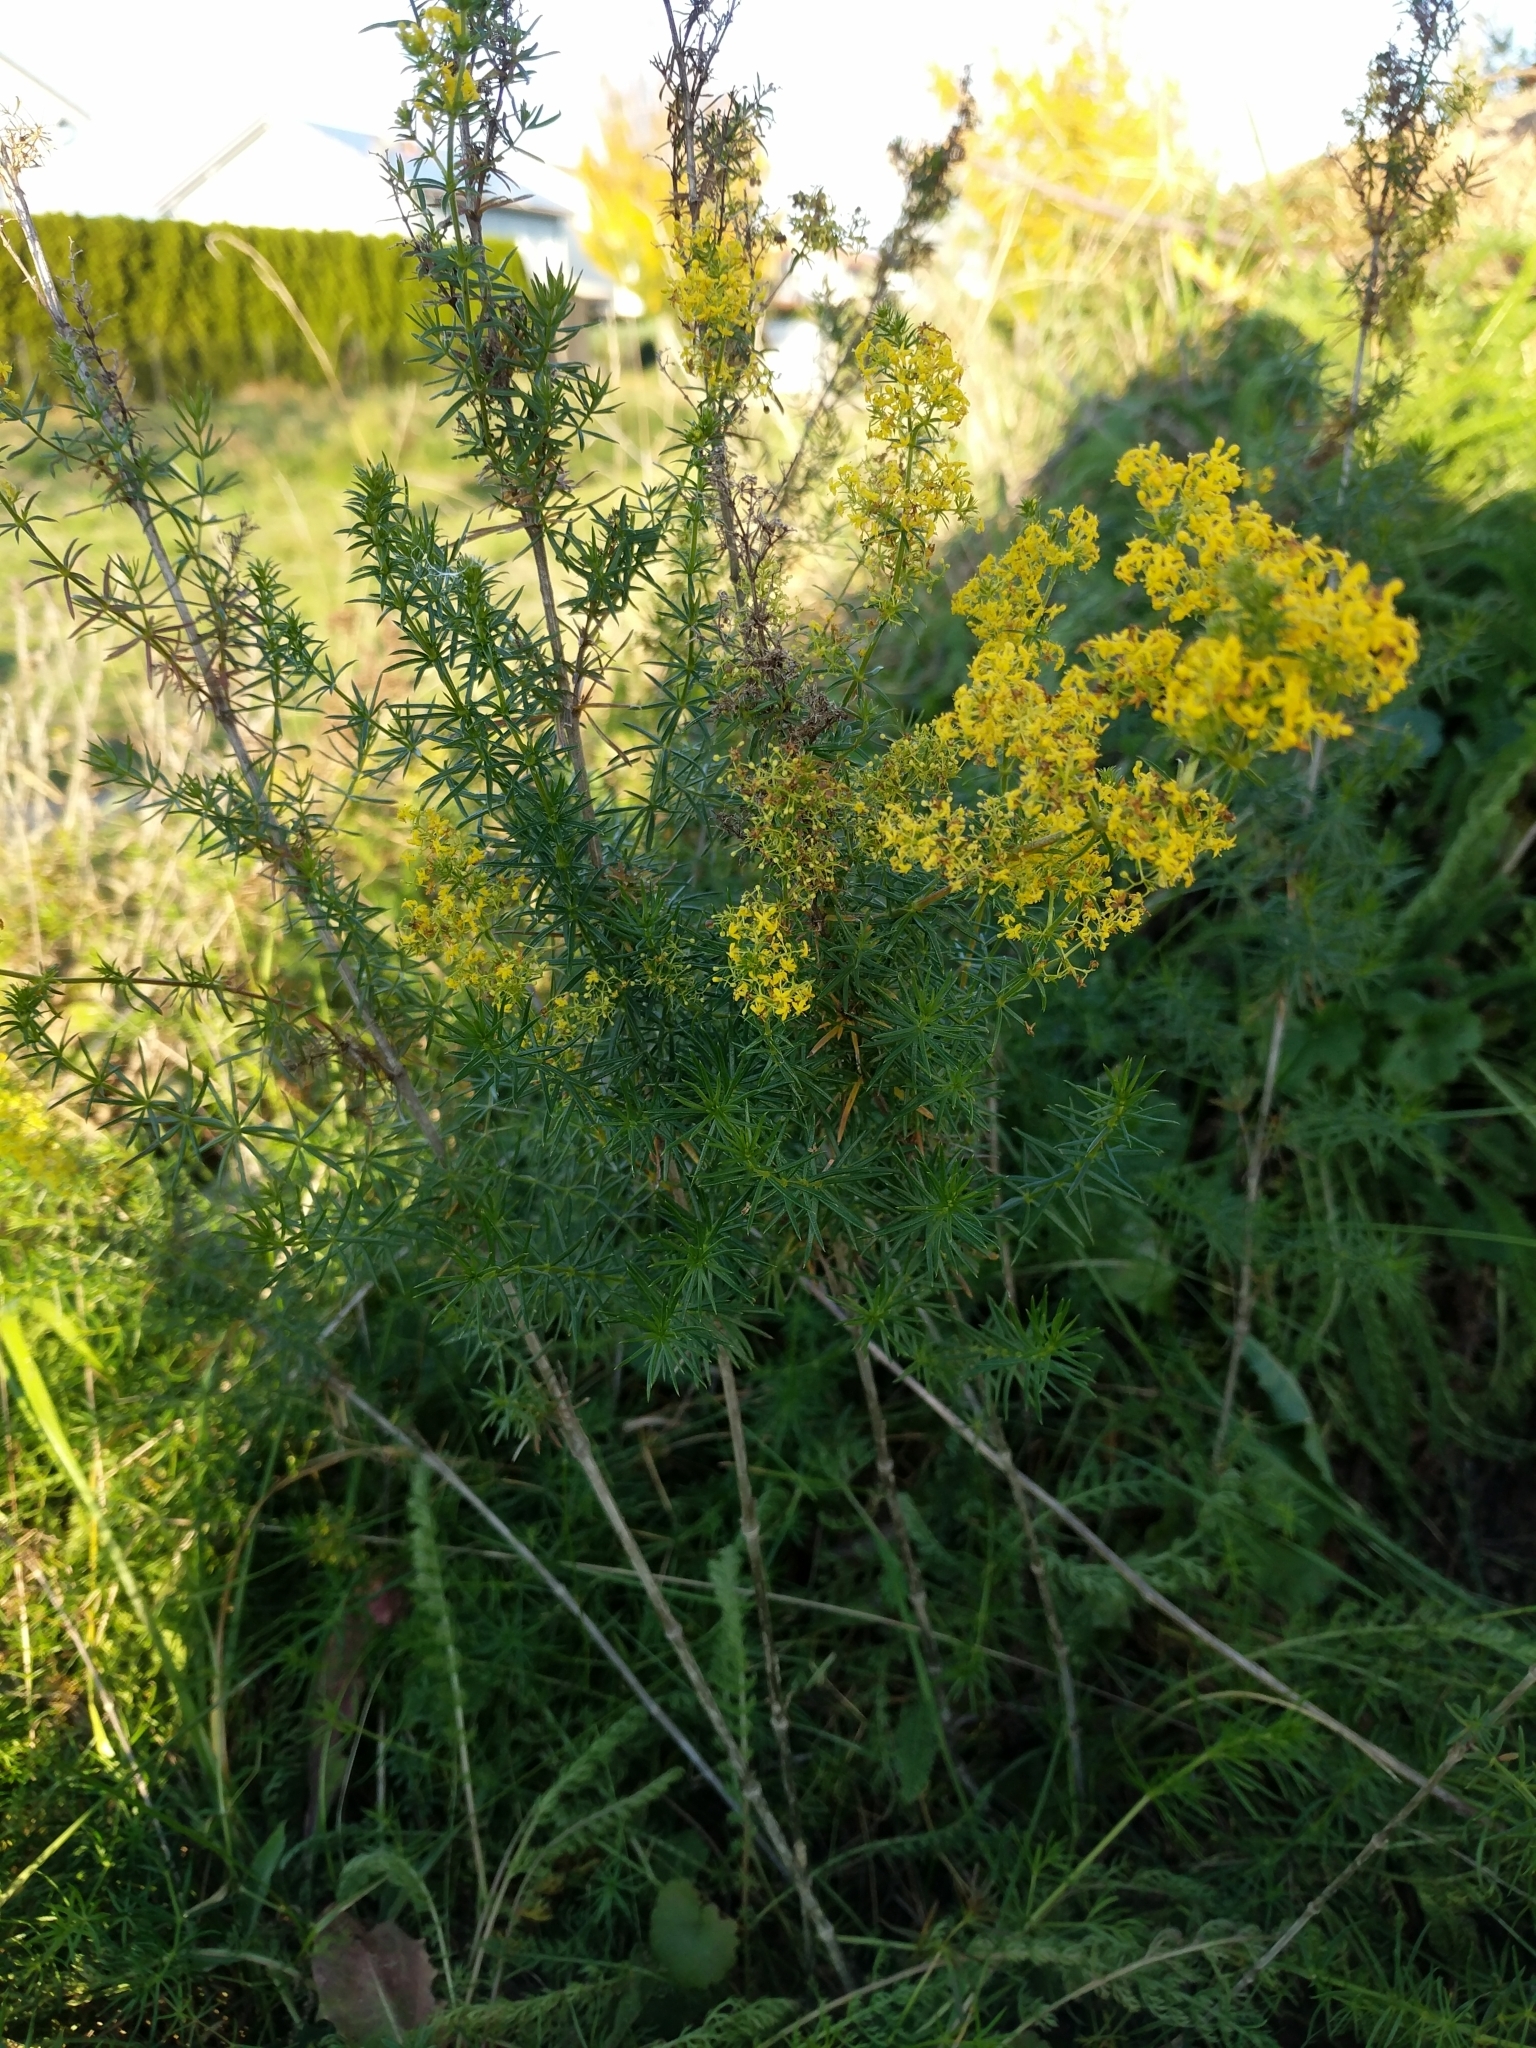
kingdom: Plantae
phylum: Tracheophyta
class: Magnoliopsida
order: Gentianales
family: Rubiaceae
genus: Galium
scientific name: Galium verum
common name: Lady's bedstraw
